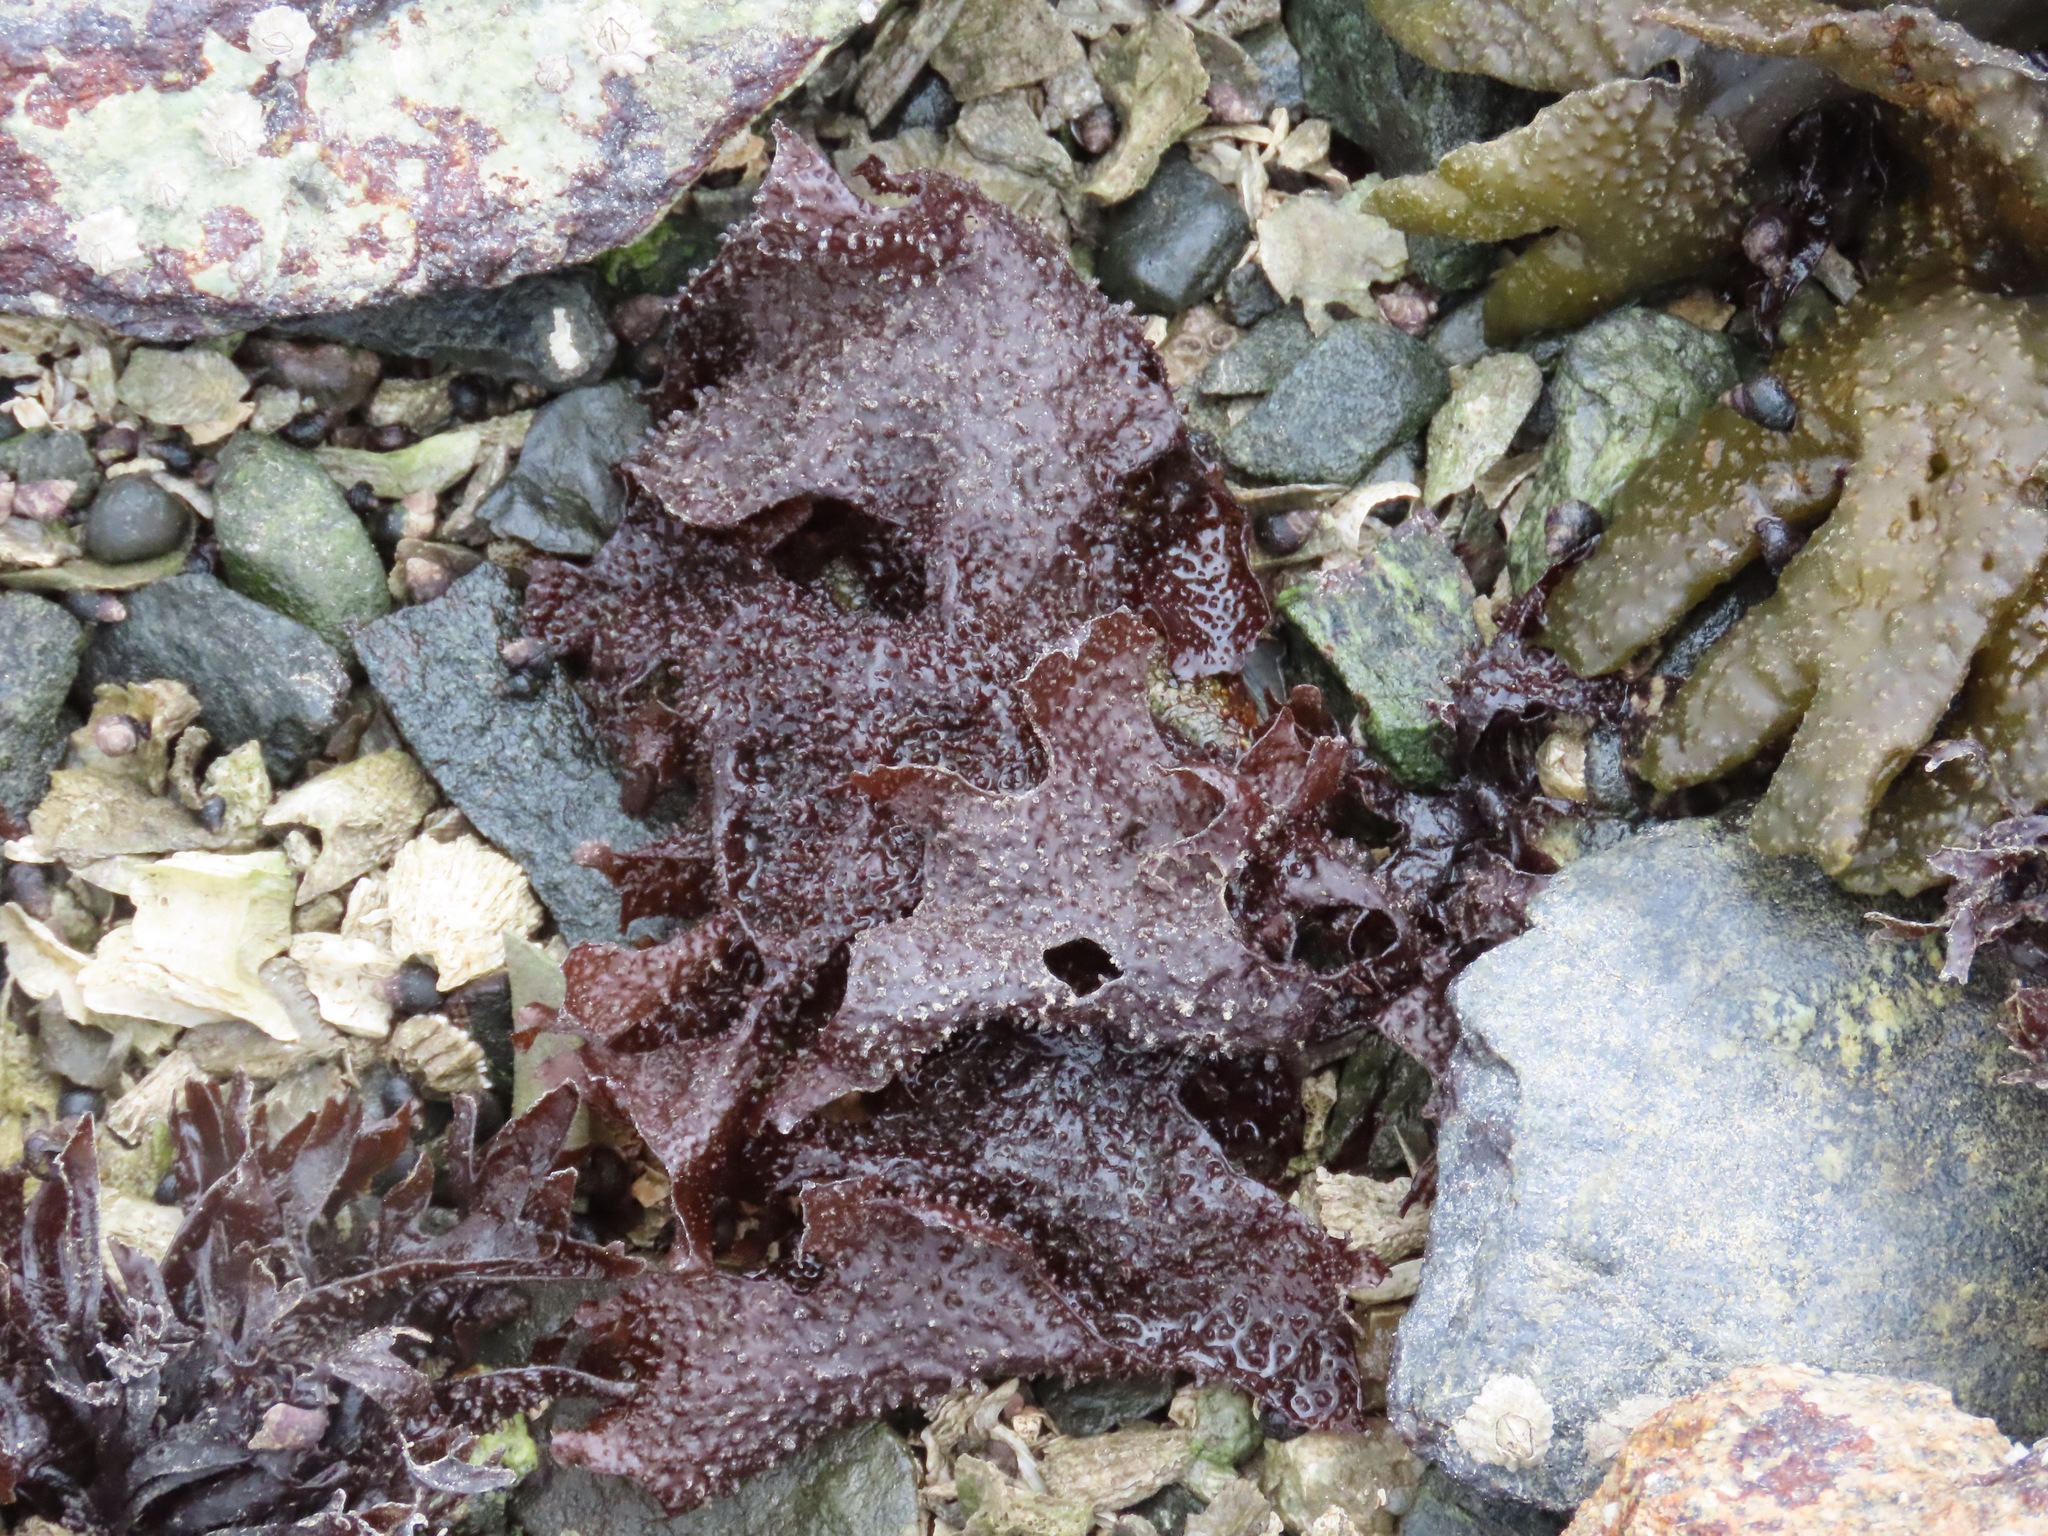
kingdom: Plantae
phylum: Rhodophyta
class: Florideophyceae
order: Gigartinales
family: Phyllophoraceae
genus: Mastocarpus
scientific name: Mastocarpus papillatus
